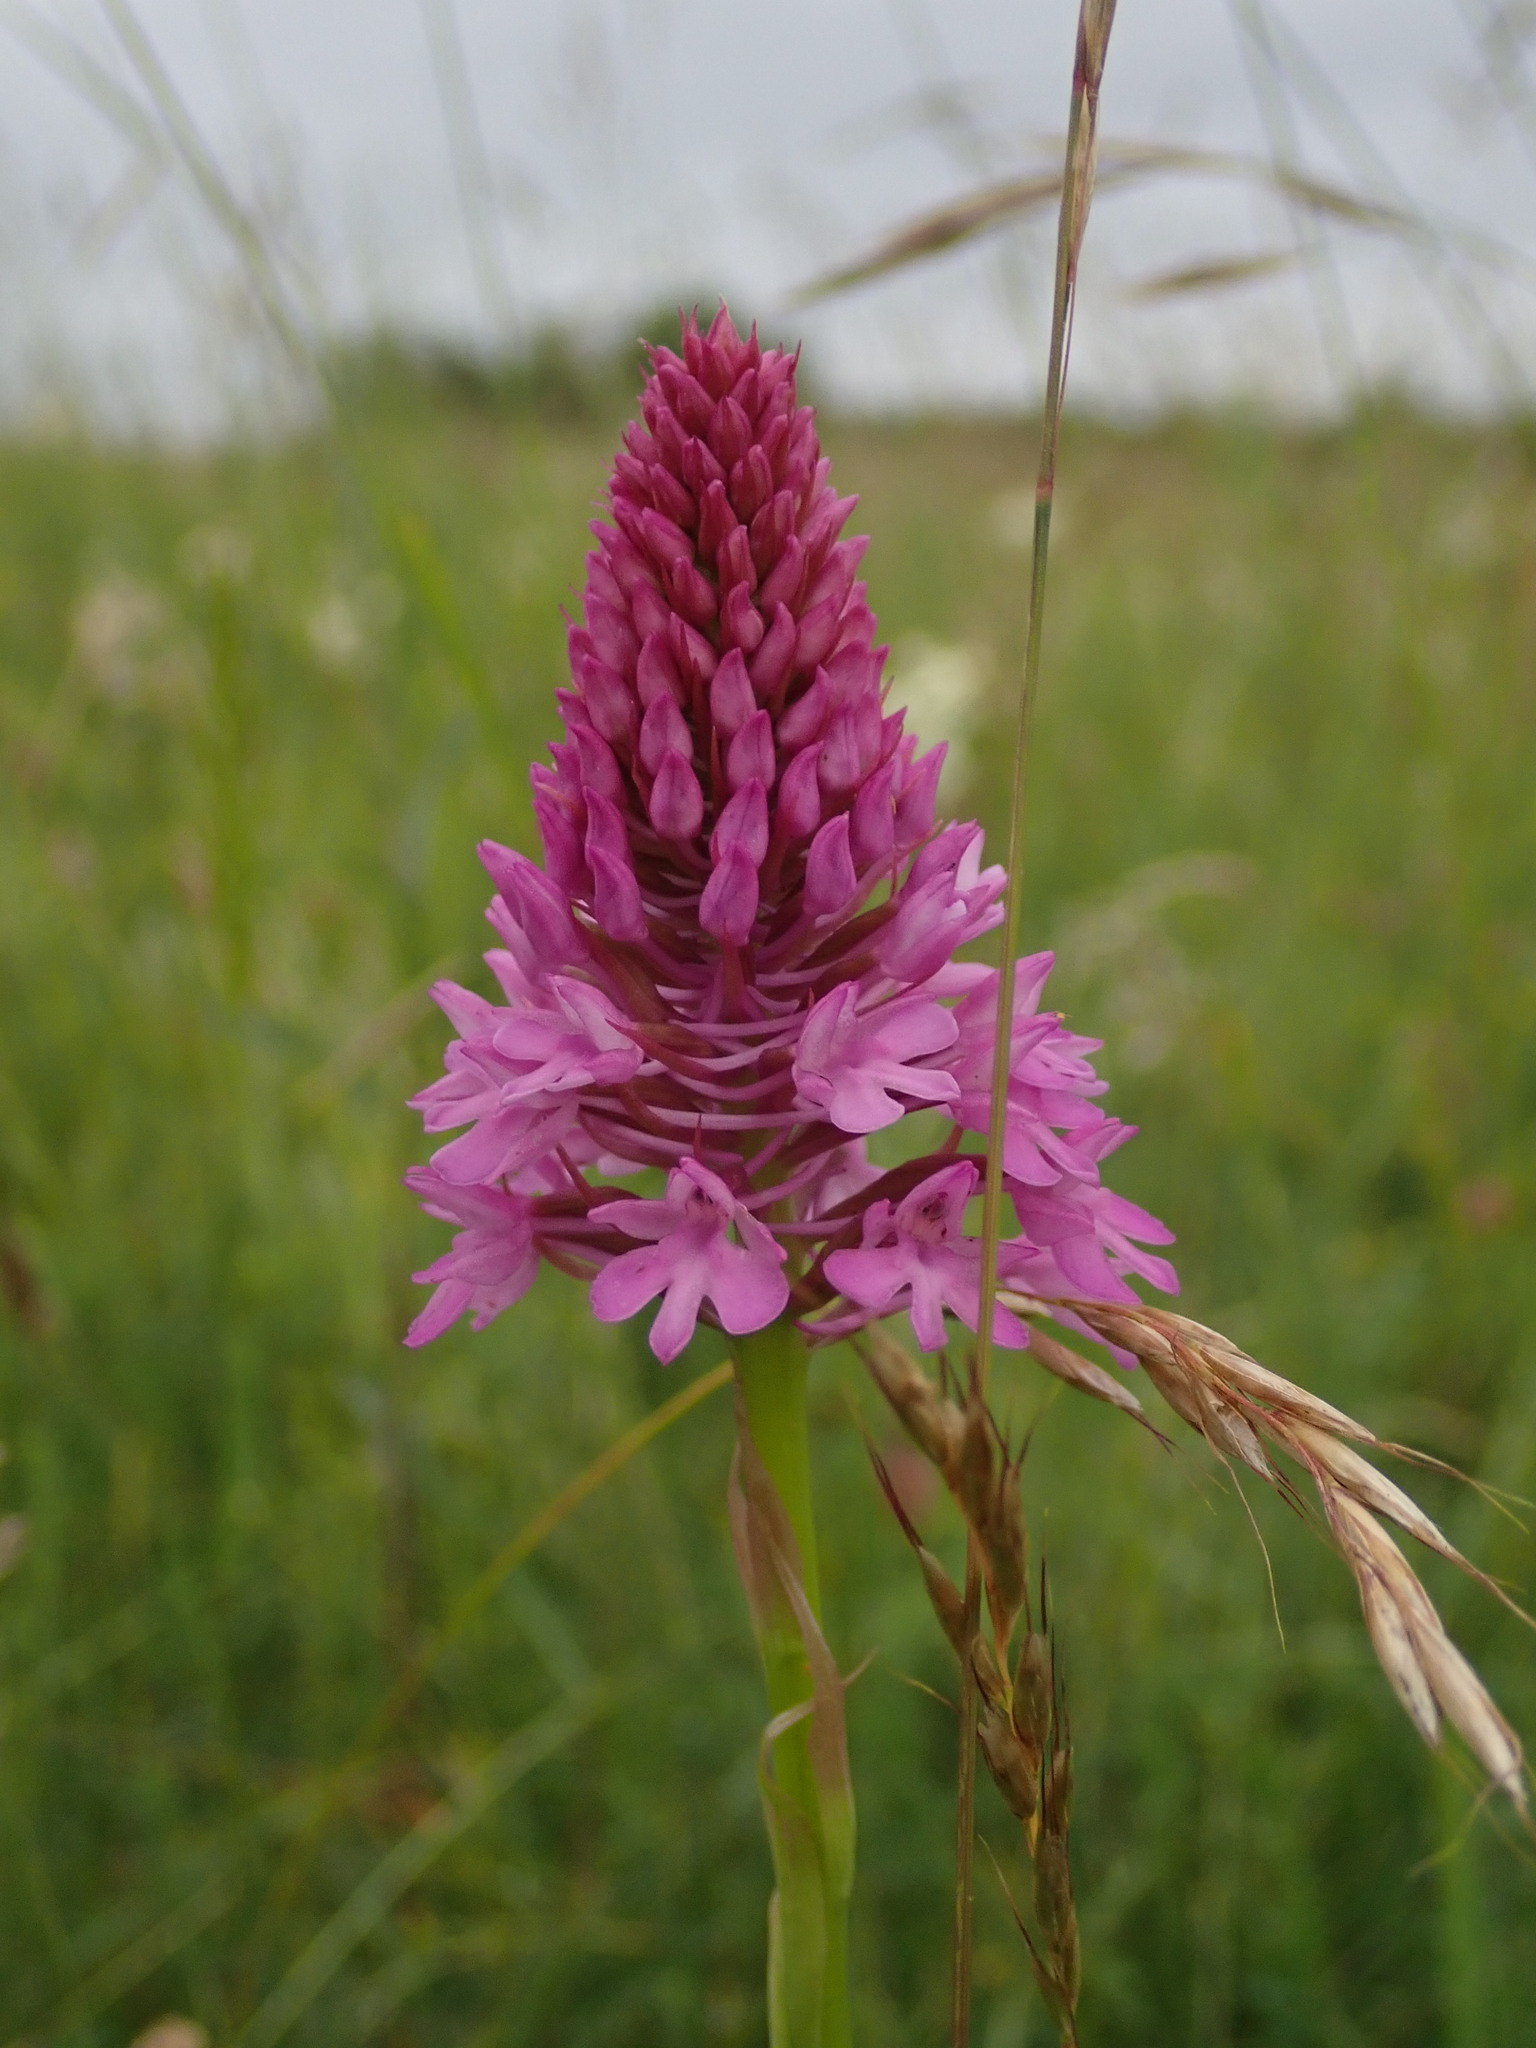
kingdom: Plantae
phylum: Tracheophyta
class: Liliopsida
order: Asparagales
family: Orchidaceae
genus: Anacamptis
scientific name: Anacamptis pyramidalis
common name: Pyramidal orchid
